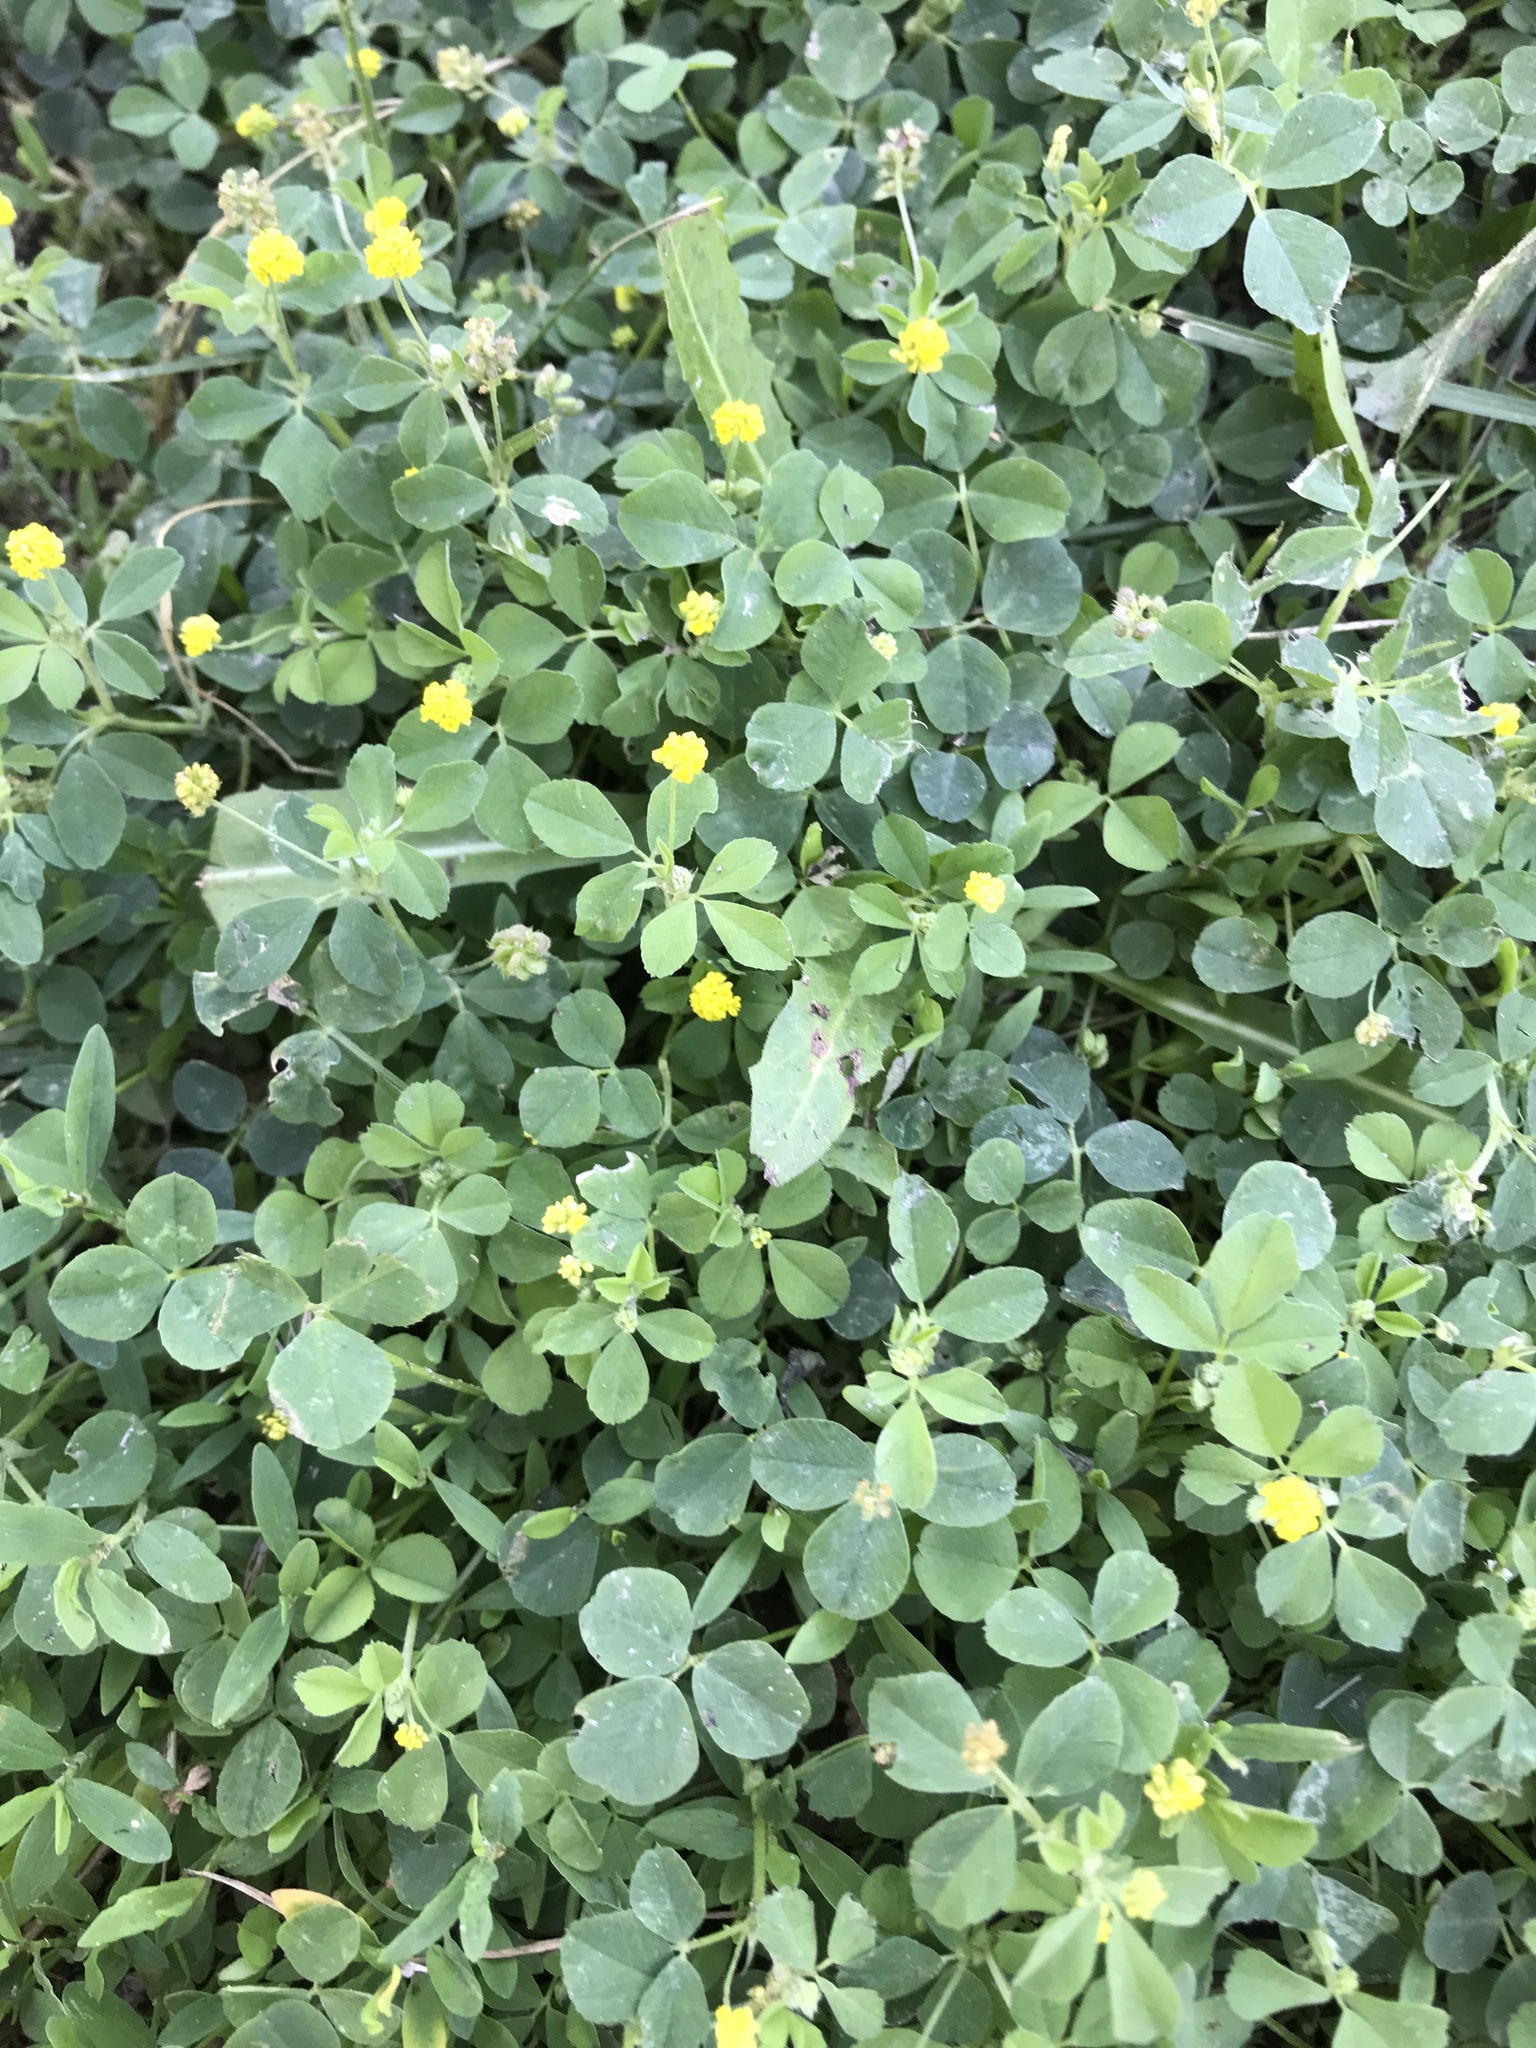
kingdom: Plantae
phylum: Tracheophyta
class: Magnoliopsida
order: Fabales
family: Fabaceae
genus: Medicago
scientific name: Medicago lupulina
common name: Black medick
